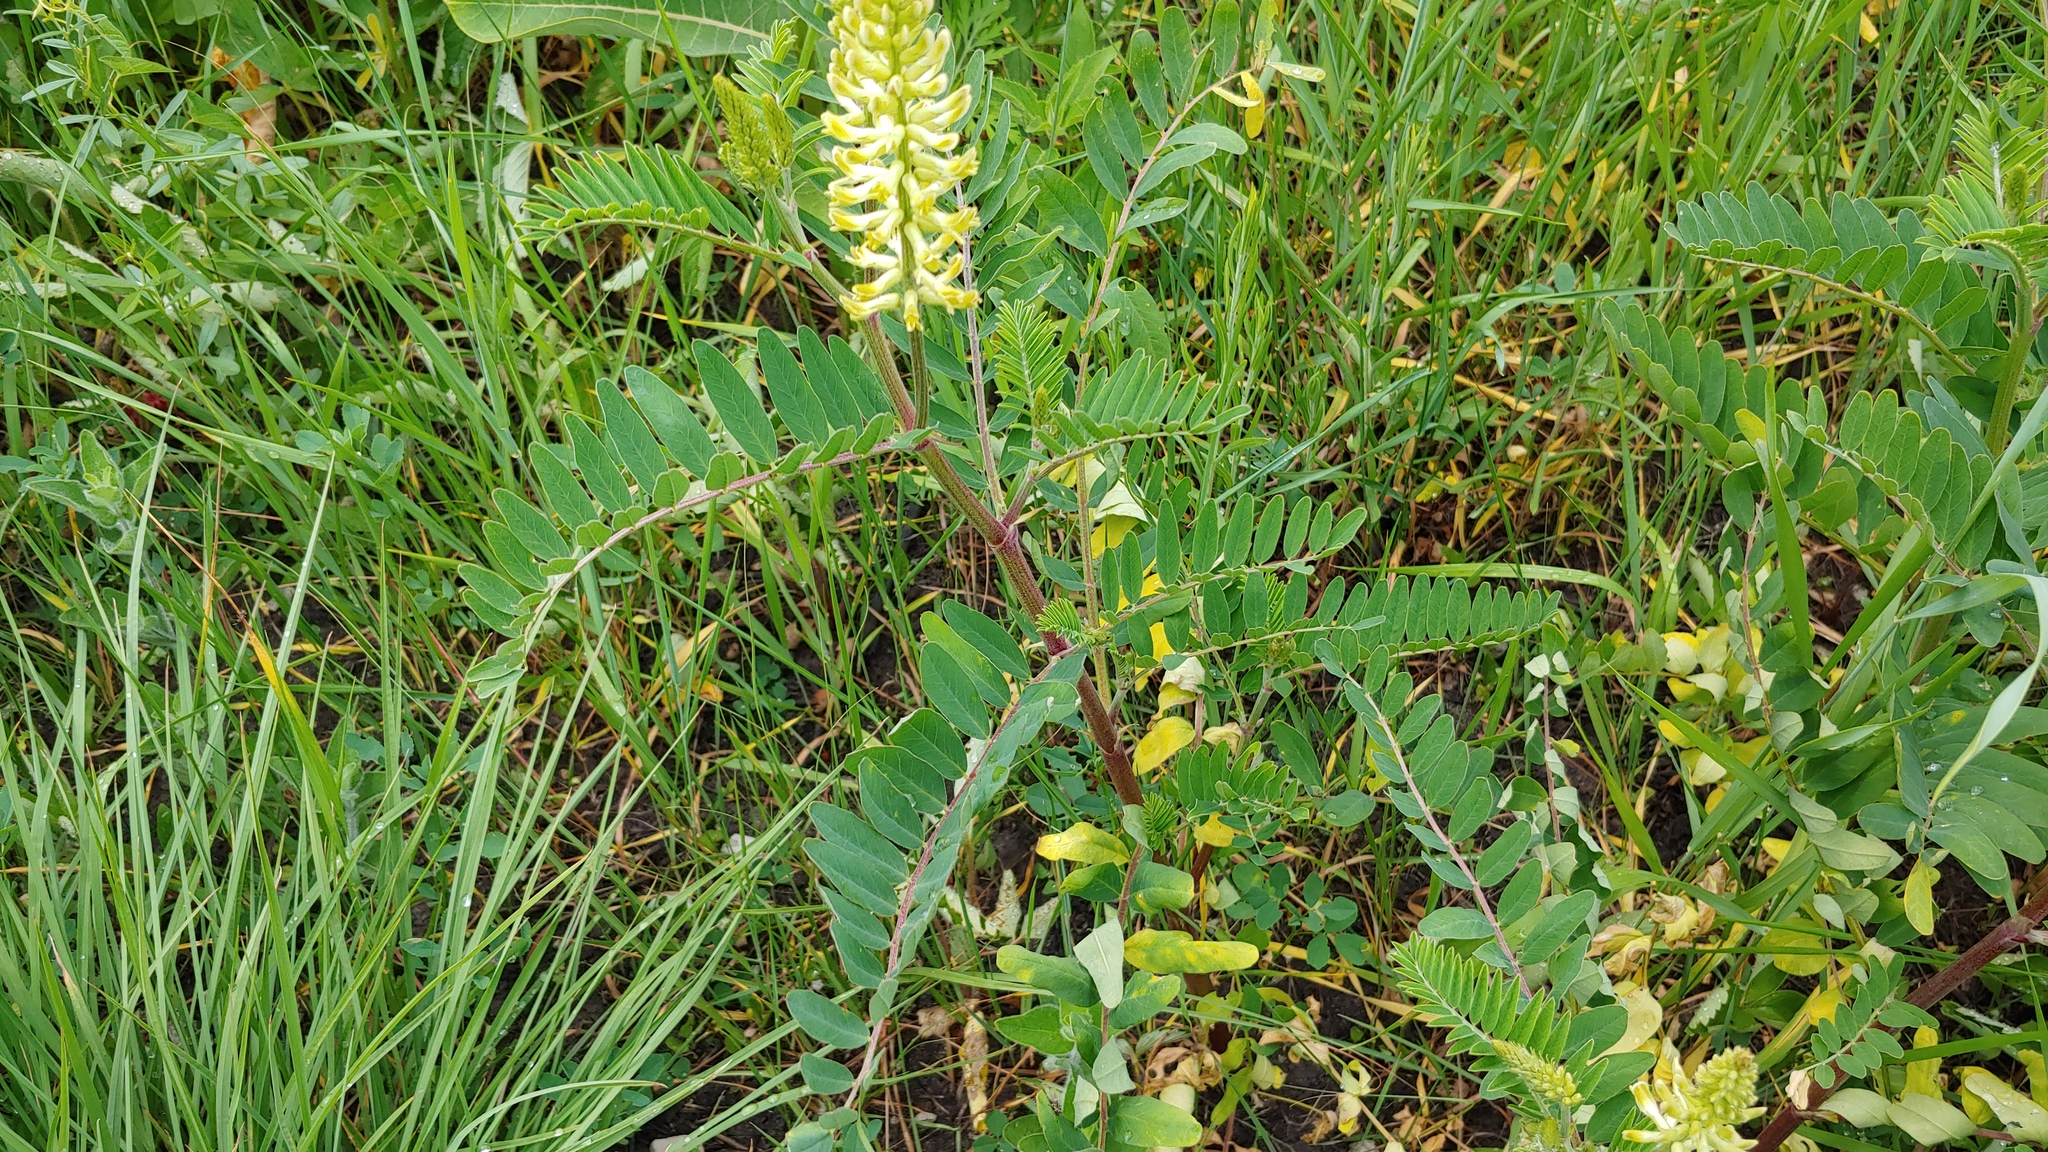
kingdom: Plantae
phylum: Tracheophyta
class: Magnoliopsida
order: Fabales
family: Fabaceae
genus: Astragalus
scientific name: Astragalus canadensis
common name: Canada milk-vetch
